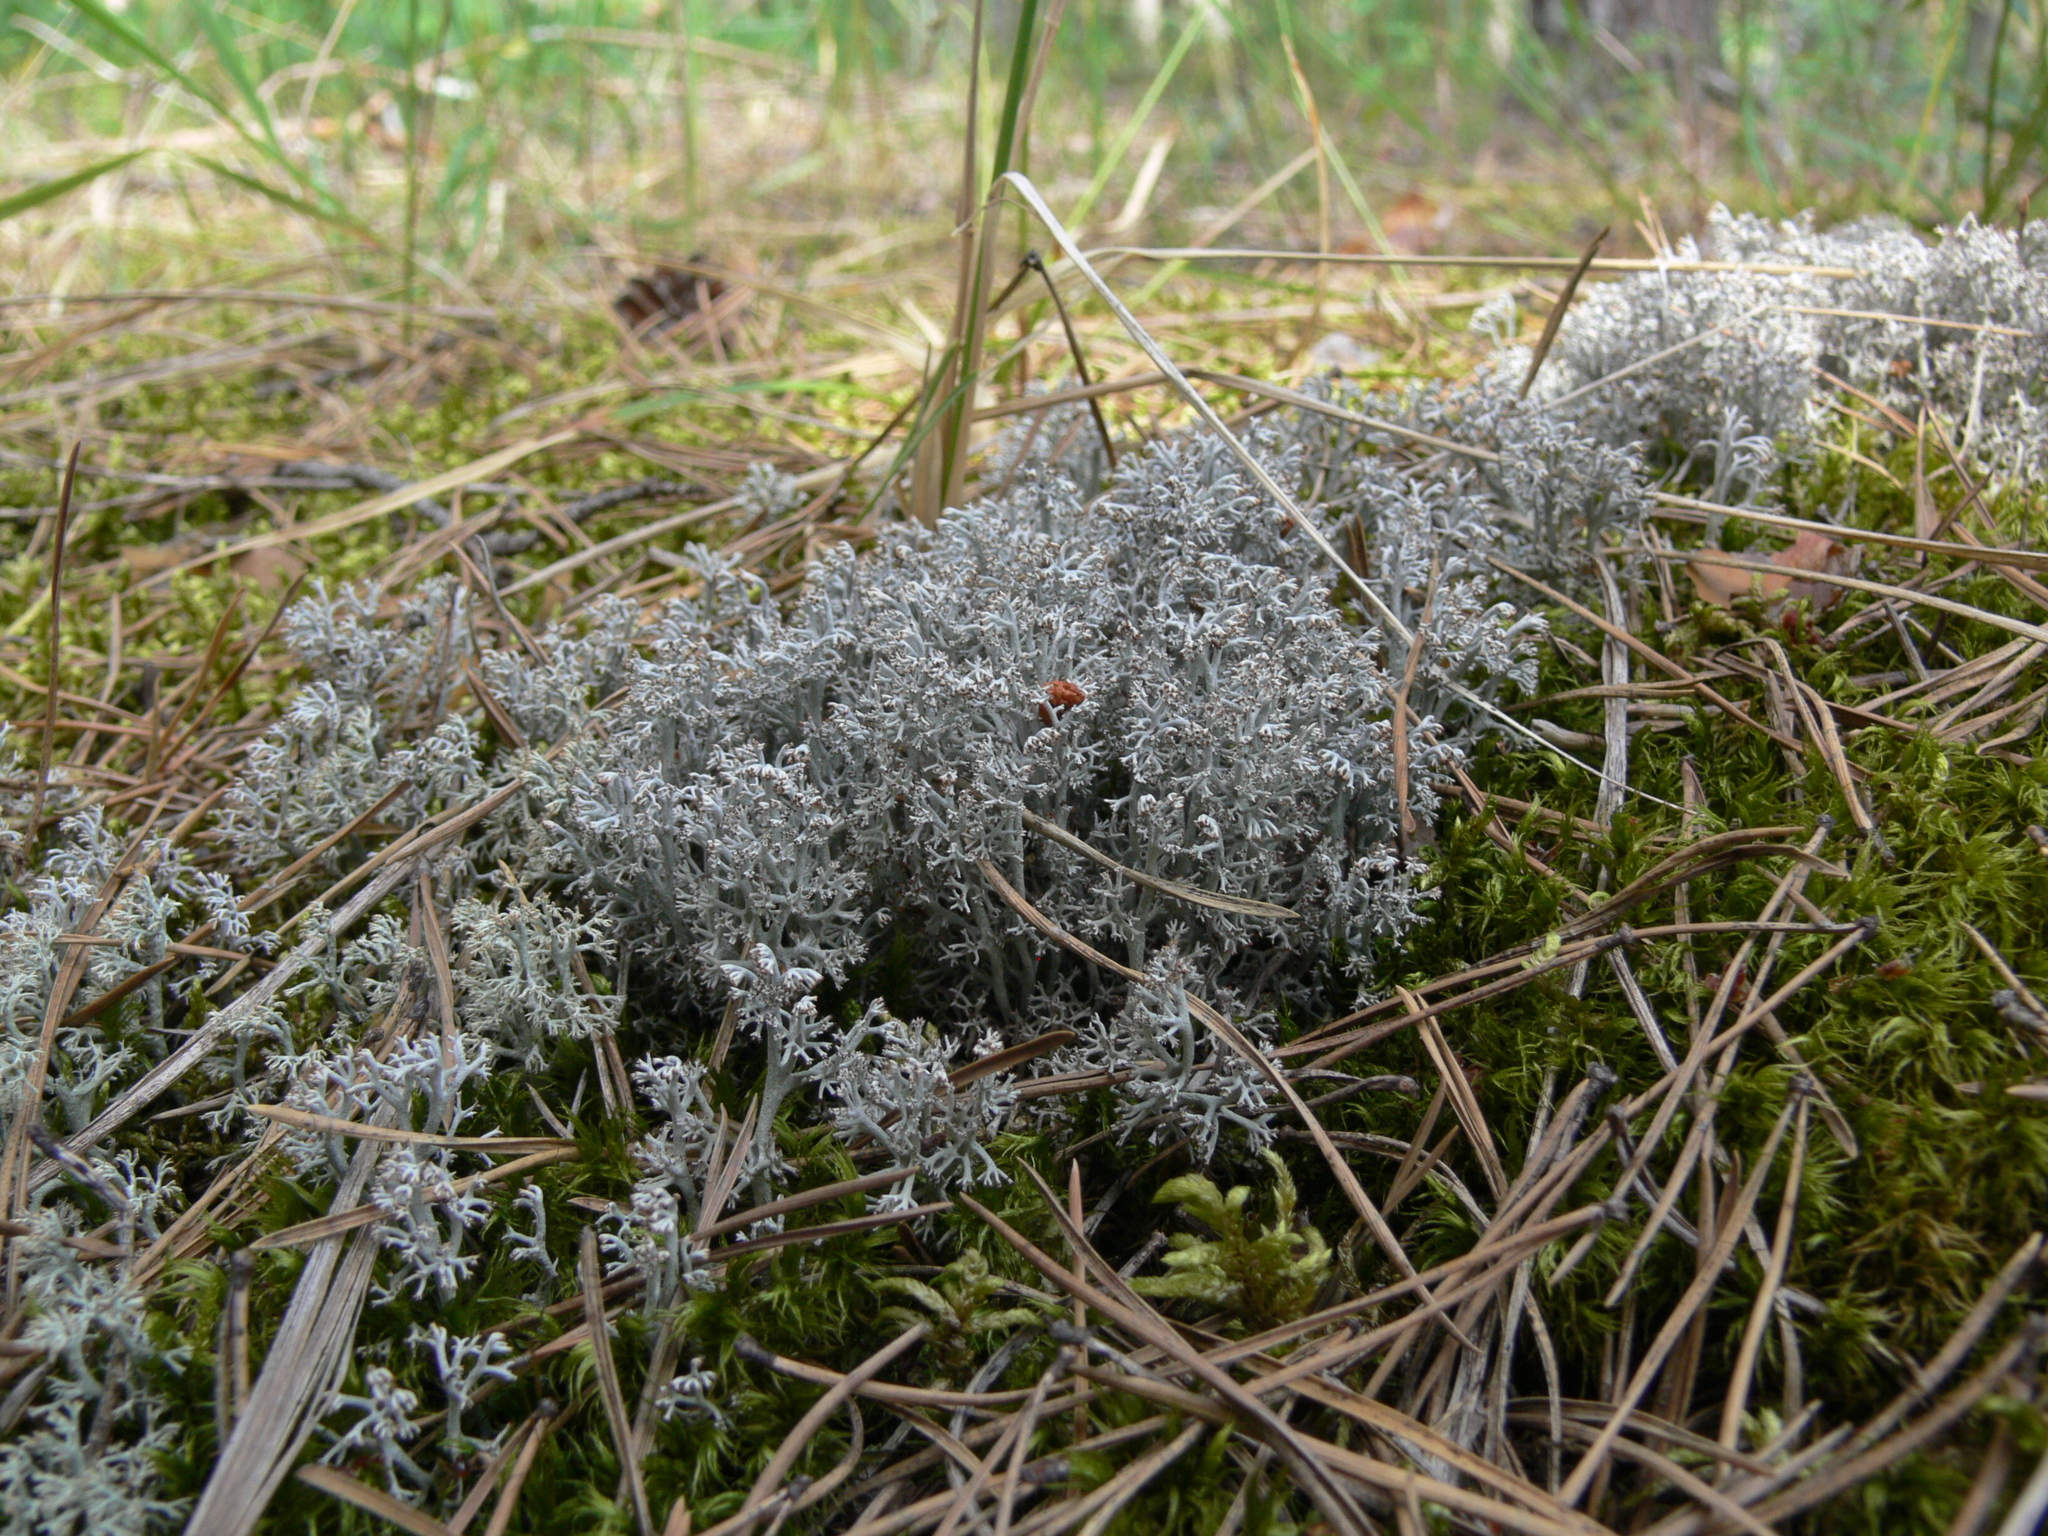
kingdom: Fungi
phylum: Ascomycota
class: Lecanoromycetes
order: Lecanorales
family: Cladoniaceae
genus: Cladonia
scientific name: Cladonia rangiferina
